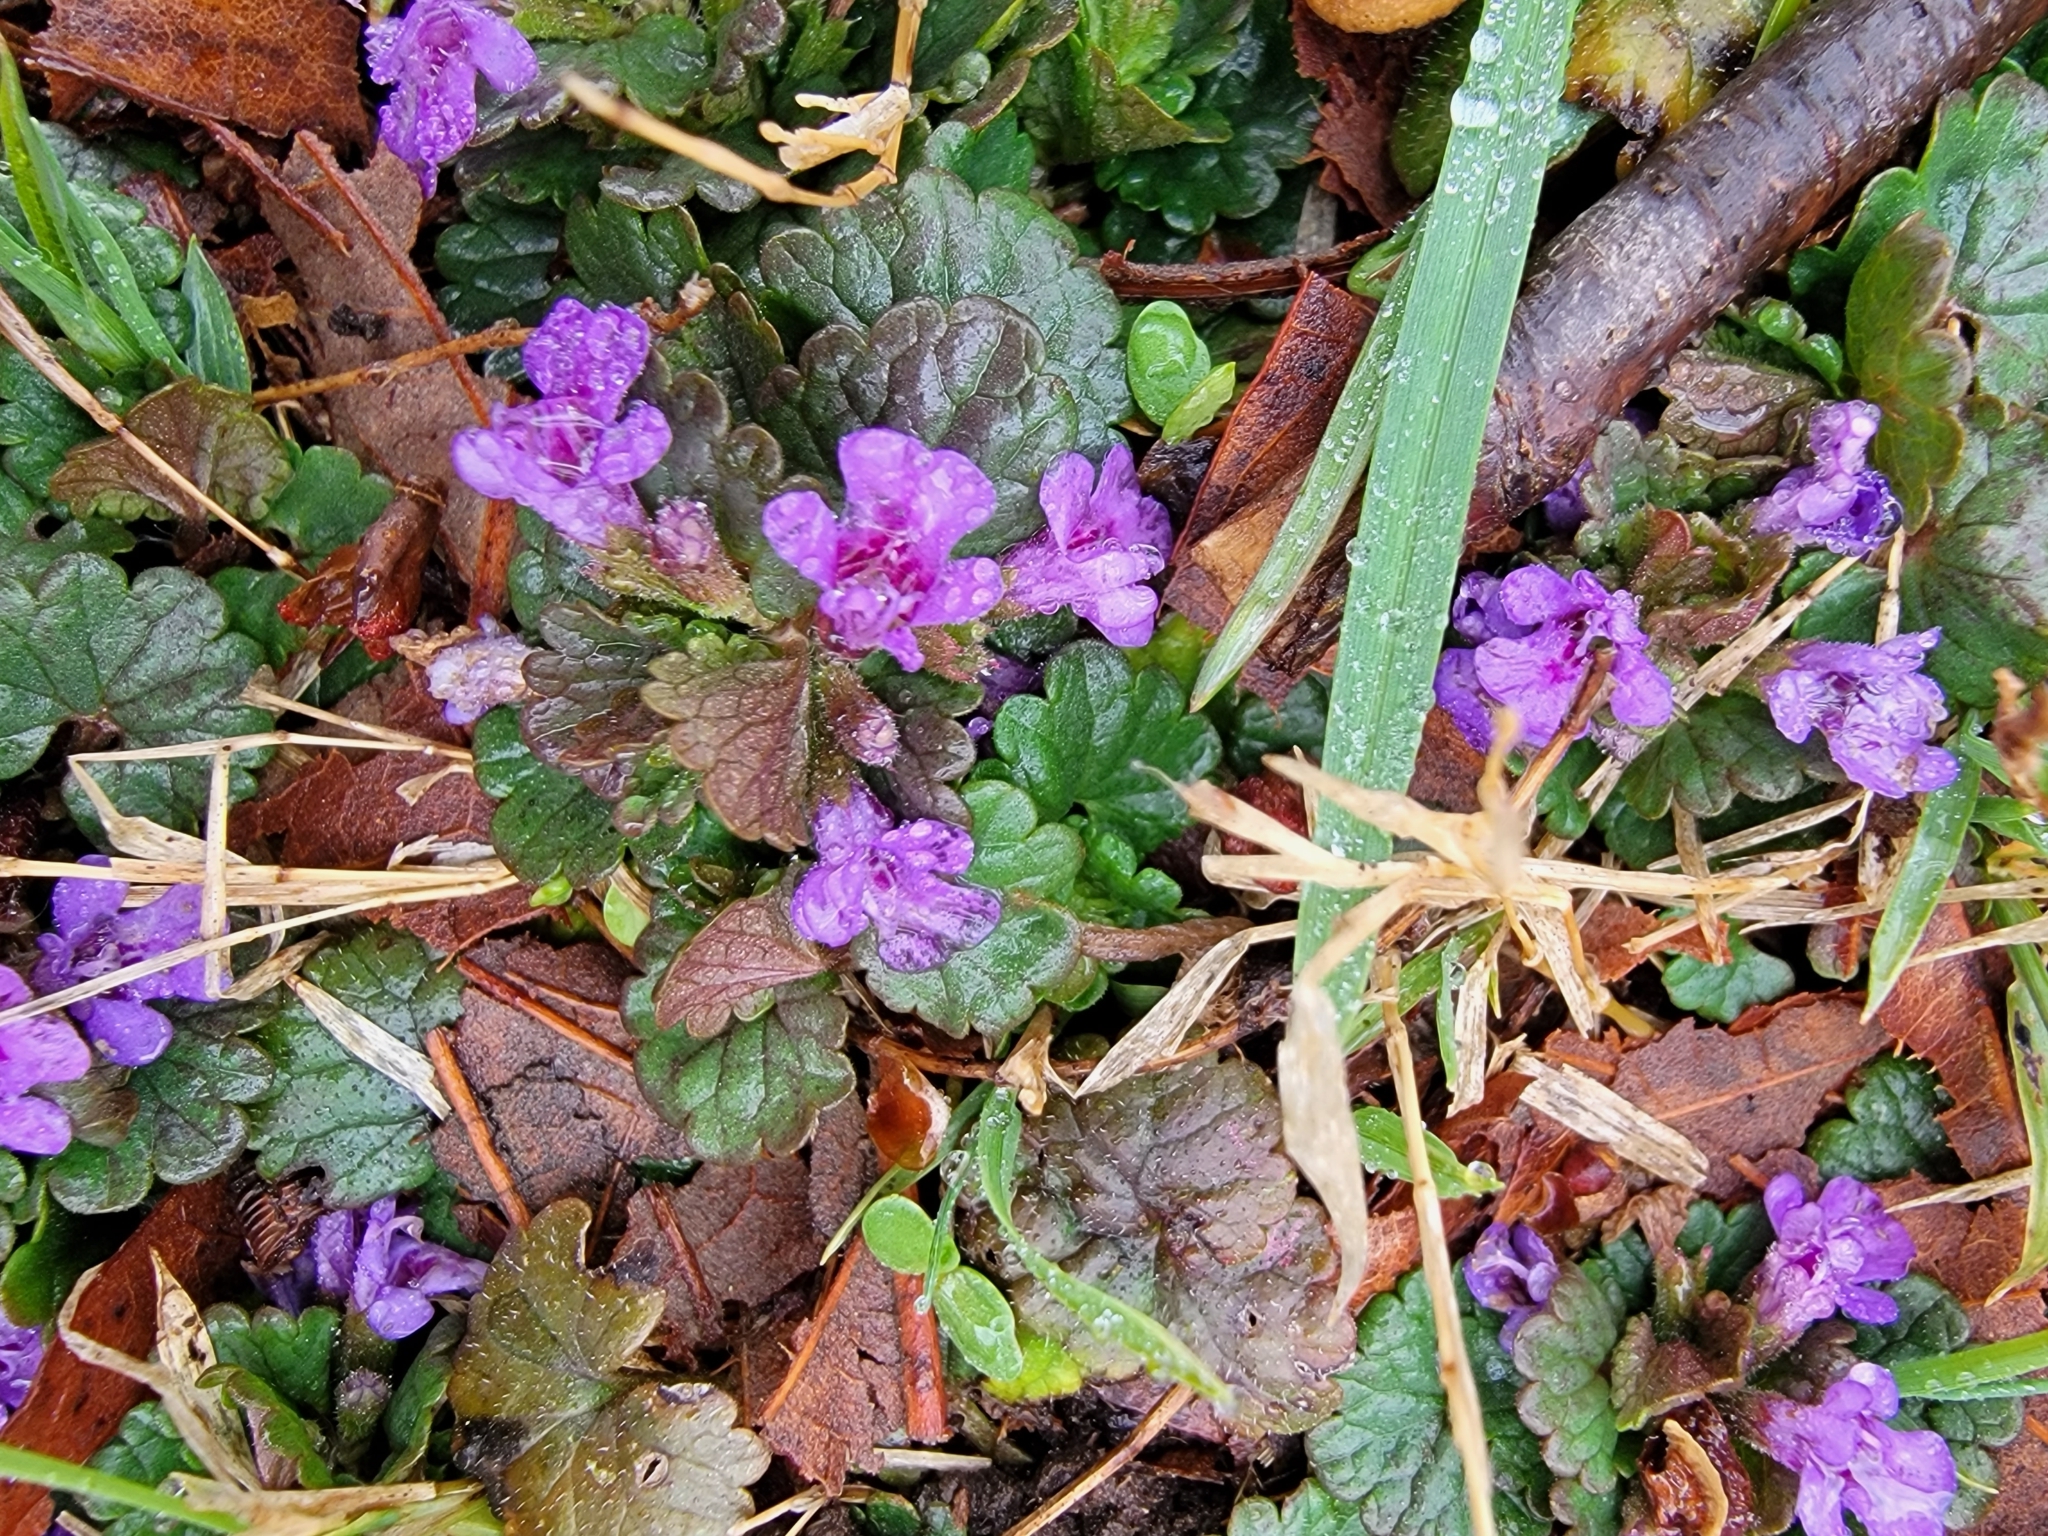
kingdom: Plantae
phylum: Tracheophyta
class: Magnoliopsida
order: Lamiales
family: Lamiaceae
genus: Glechoma
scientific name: Glechoma hederacea
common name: Ground ivy
